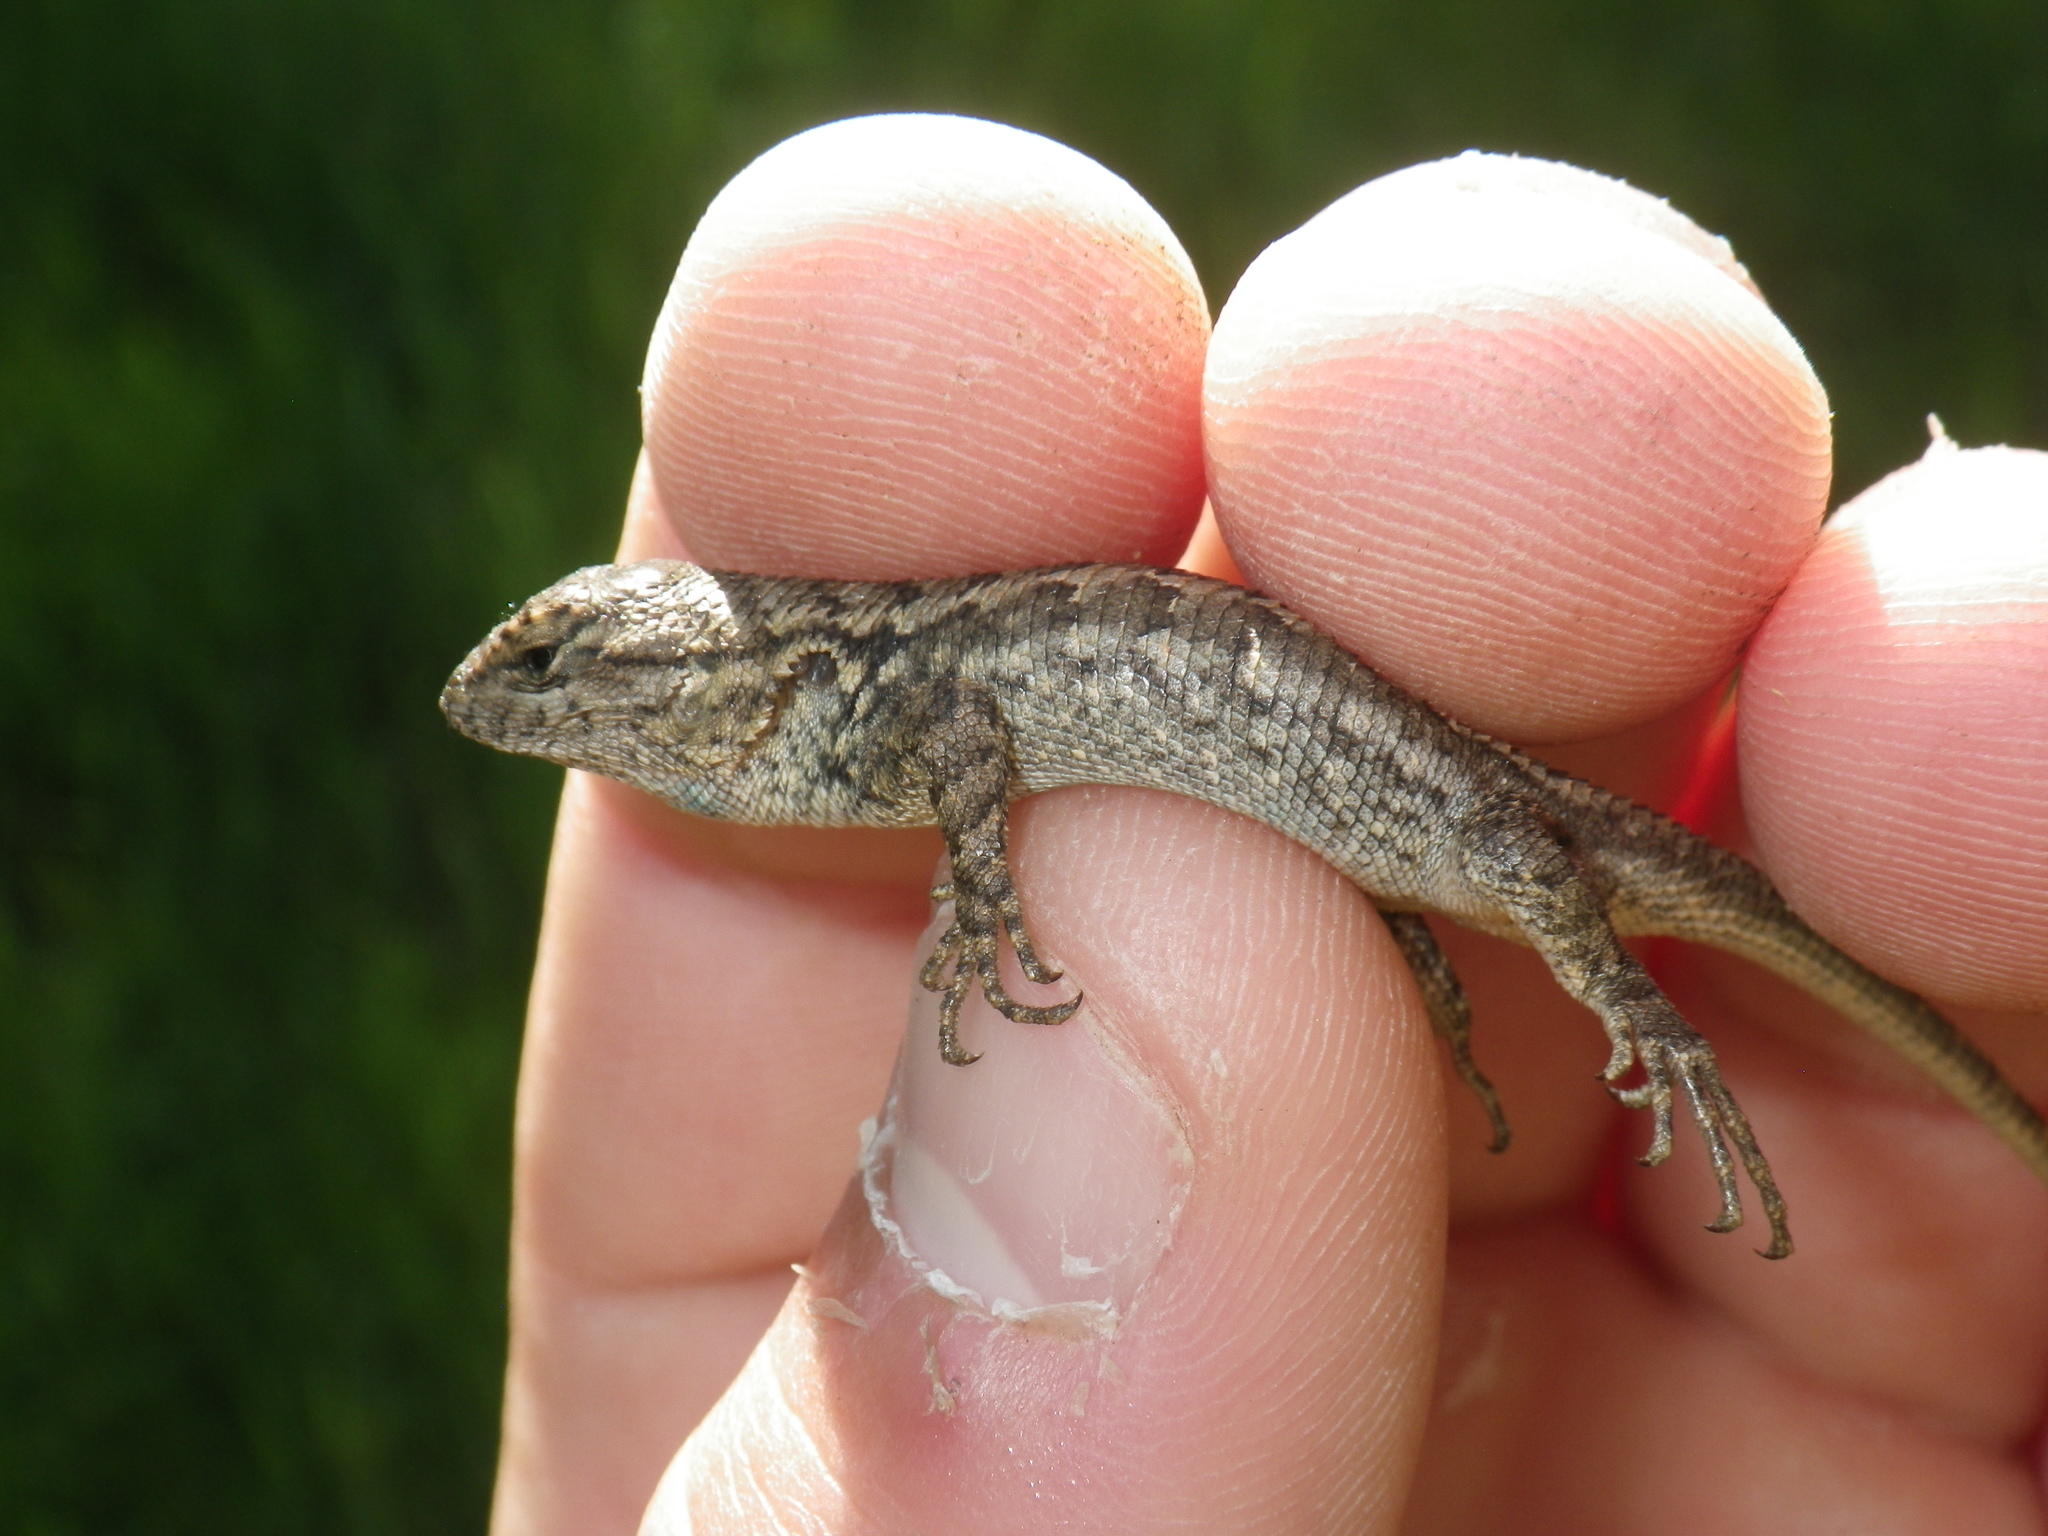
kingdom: Animalia
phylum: Chordata
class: Squamata
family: Phrynosomatidae
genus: Sceloporus
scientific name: Sceloporus occidentalis
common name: Western fence lizard
